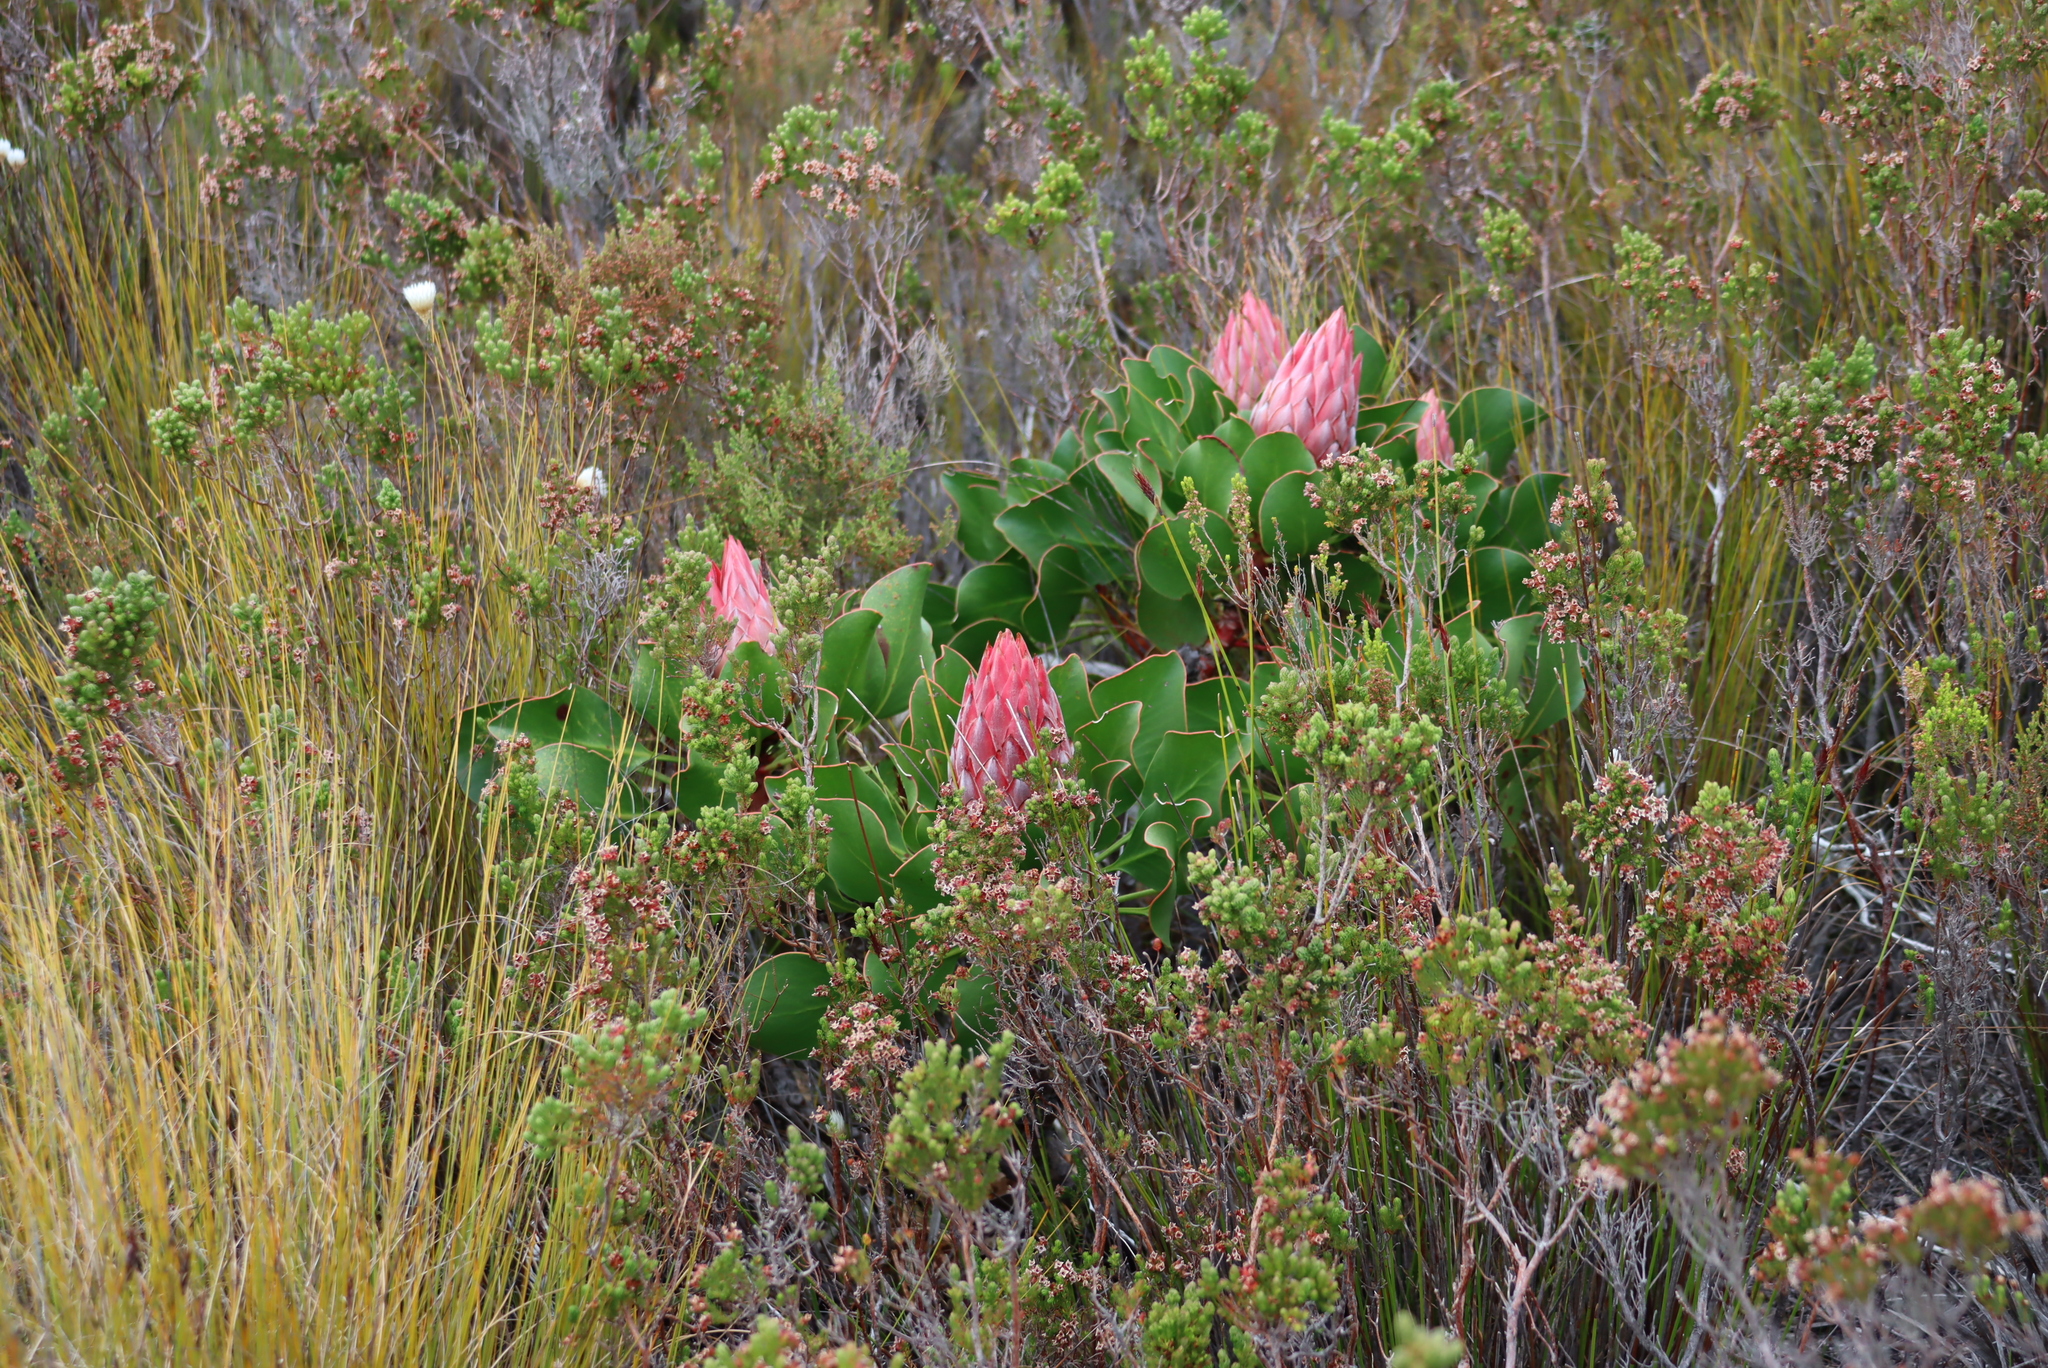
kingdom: Plantae
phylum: Tracheophyta
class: Magnoliopsida
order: Proteales
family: Proteaceae
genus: Protea
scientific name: Protea cynaroides
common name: King protea
